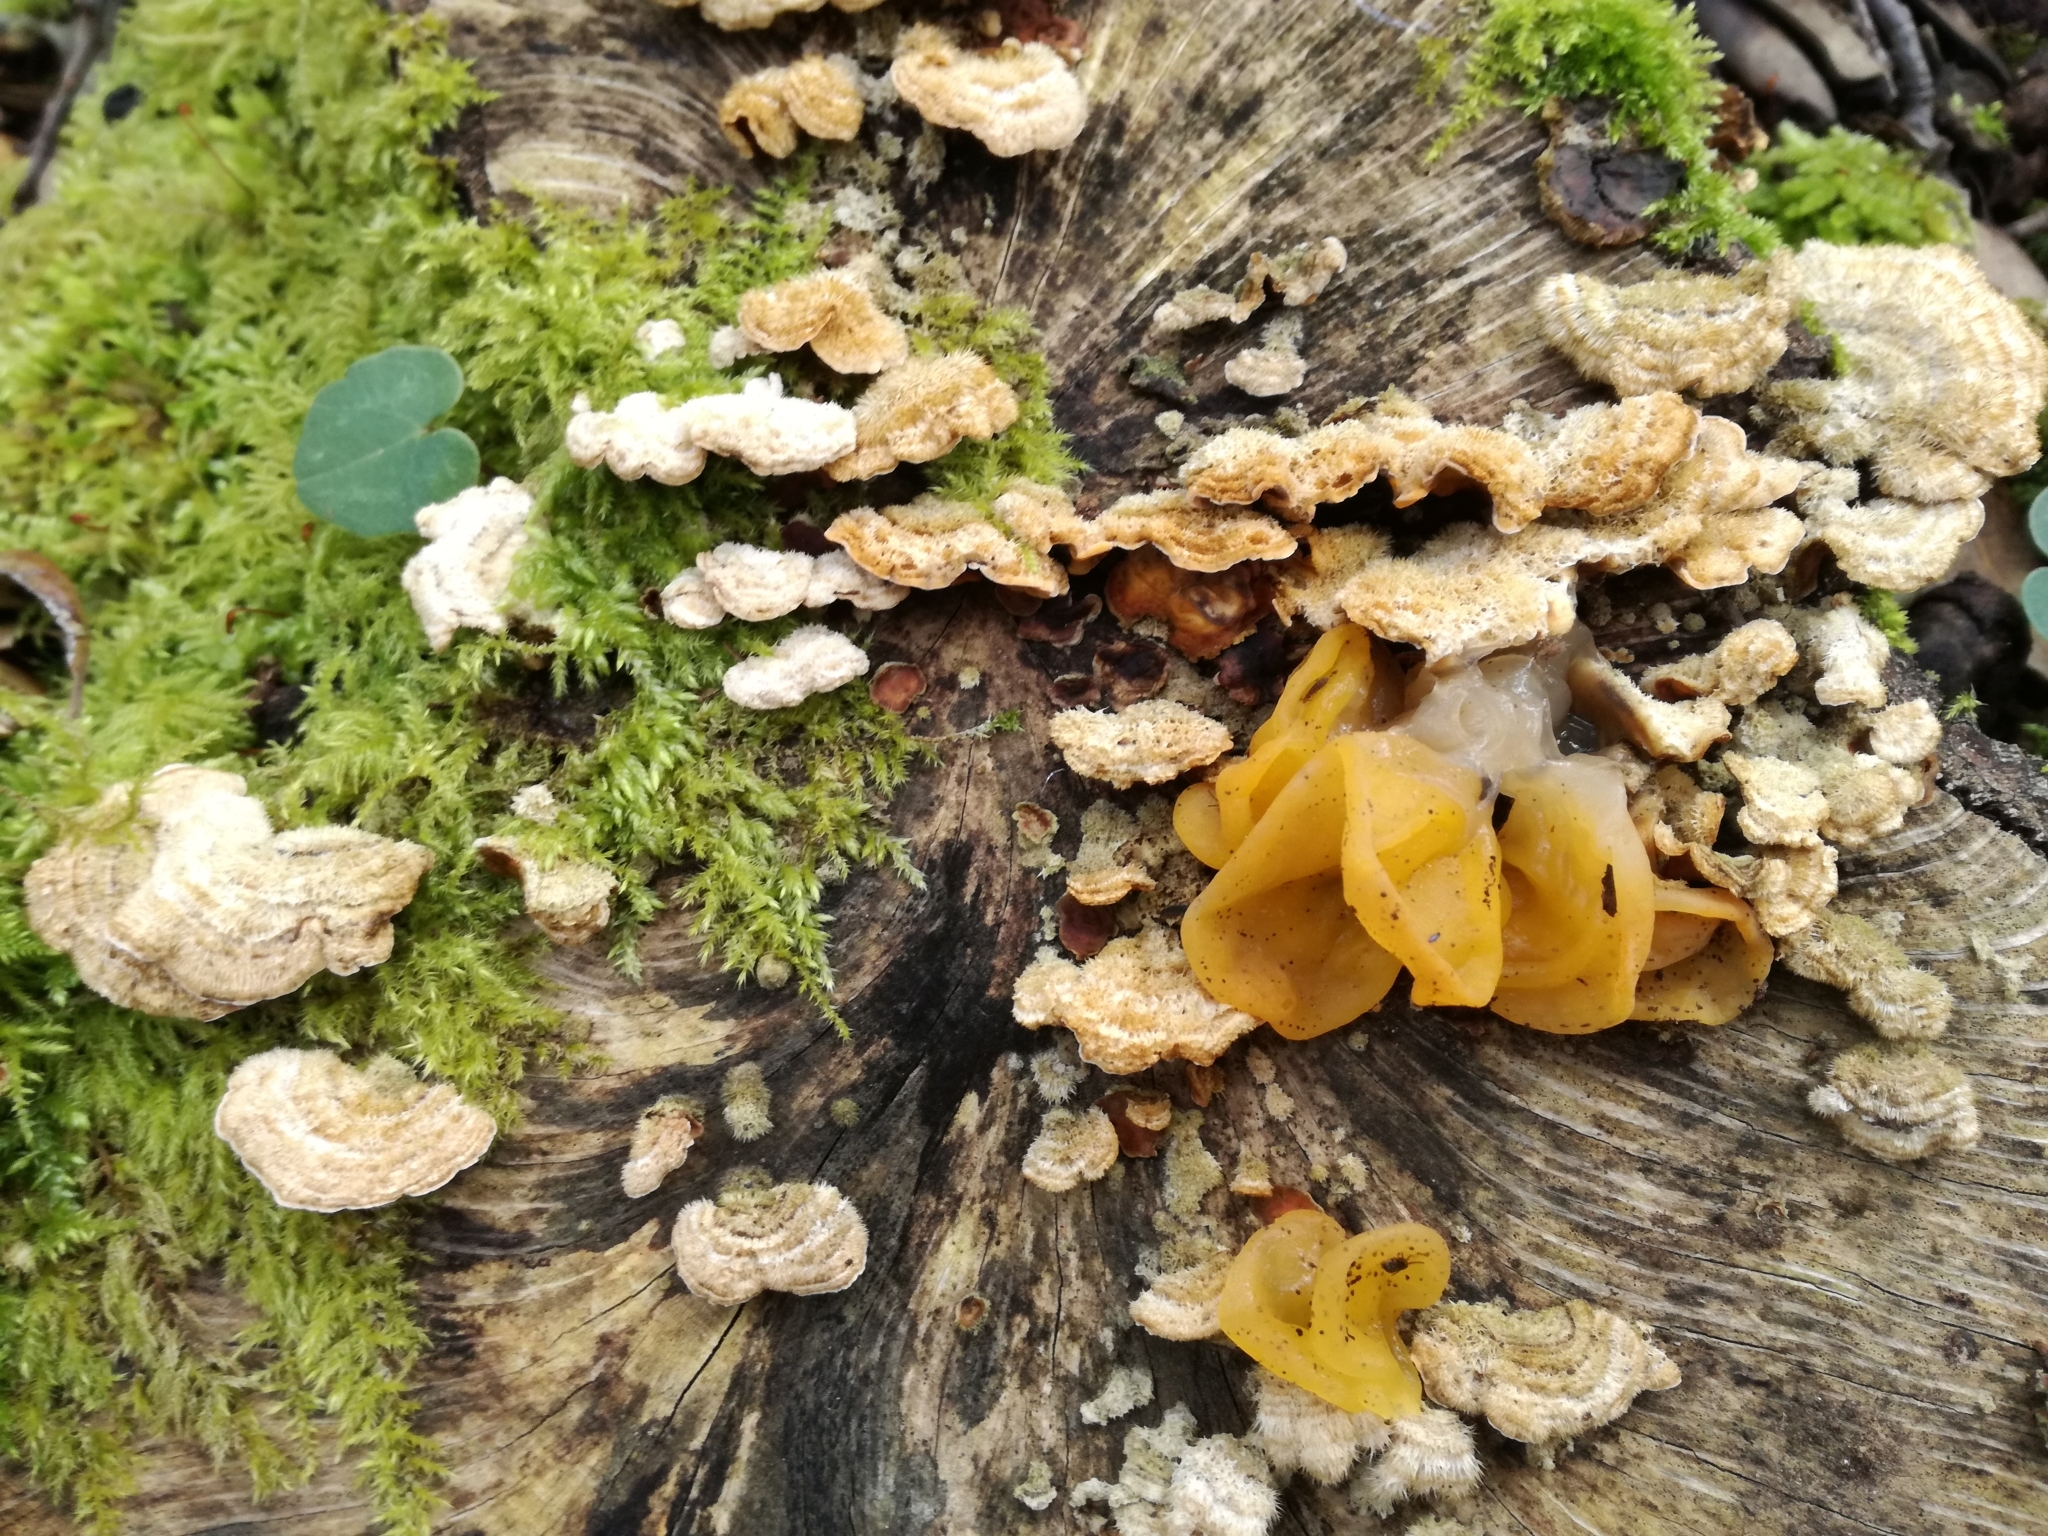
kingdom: Fungi
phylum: Basidiomycota
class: Tremellomycetes
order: Tremellales
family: Naemateliaceae
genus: Naematelia
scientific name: Naematelia aurantia
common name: Golden ear
